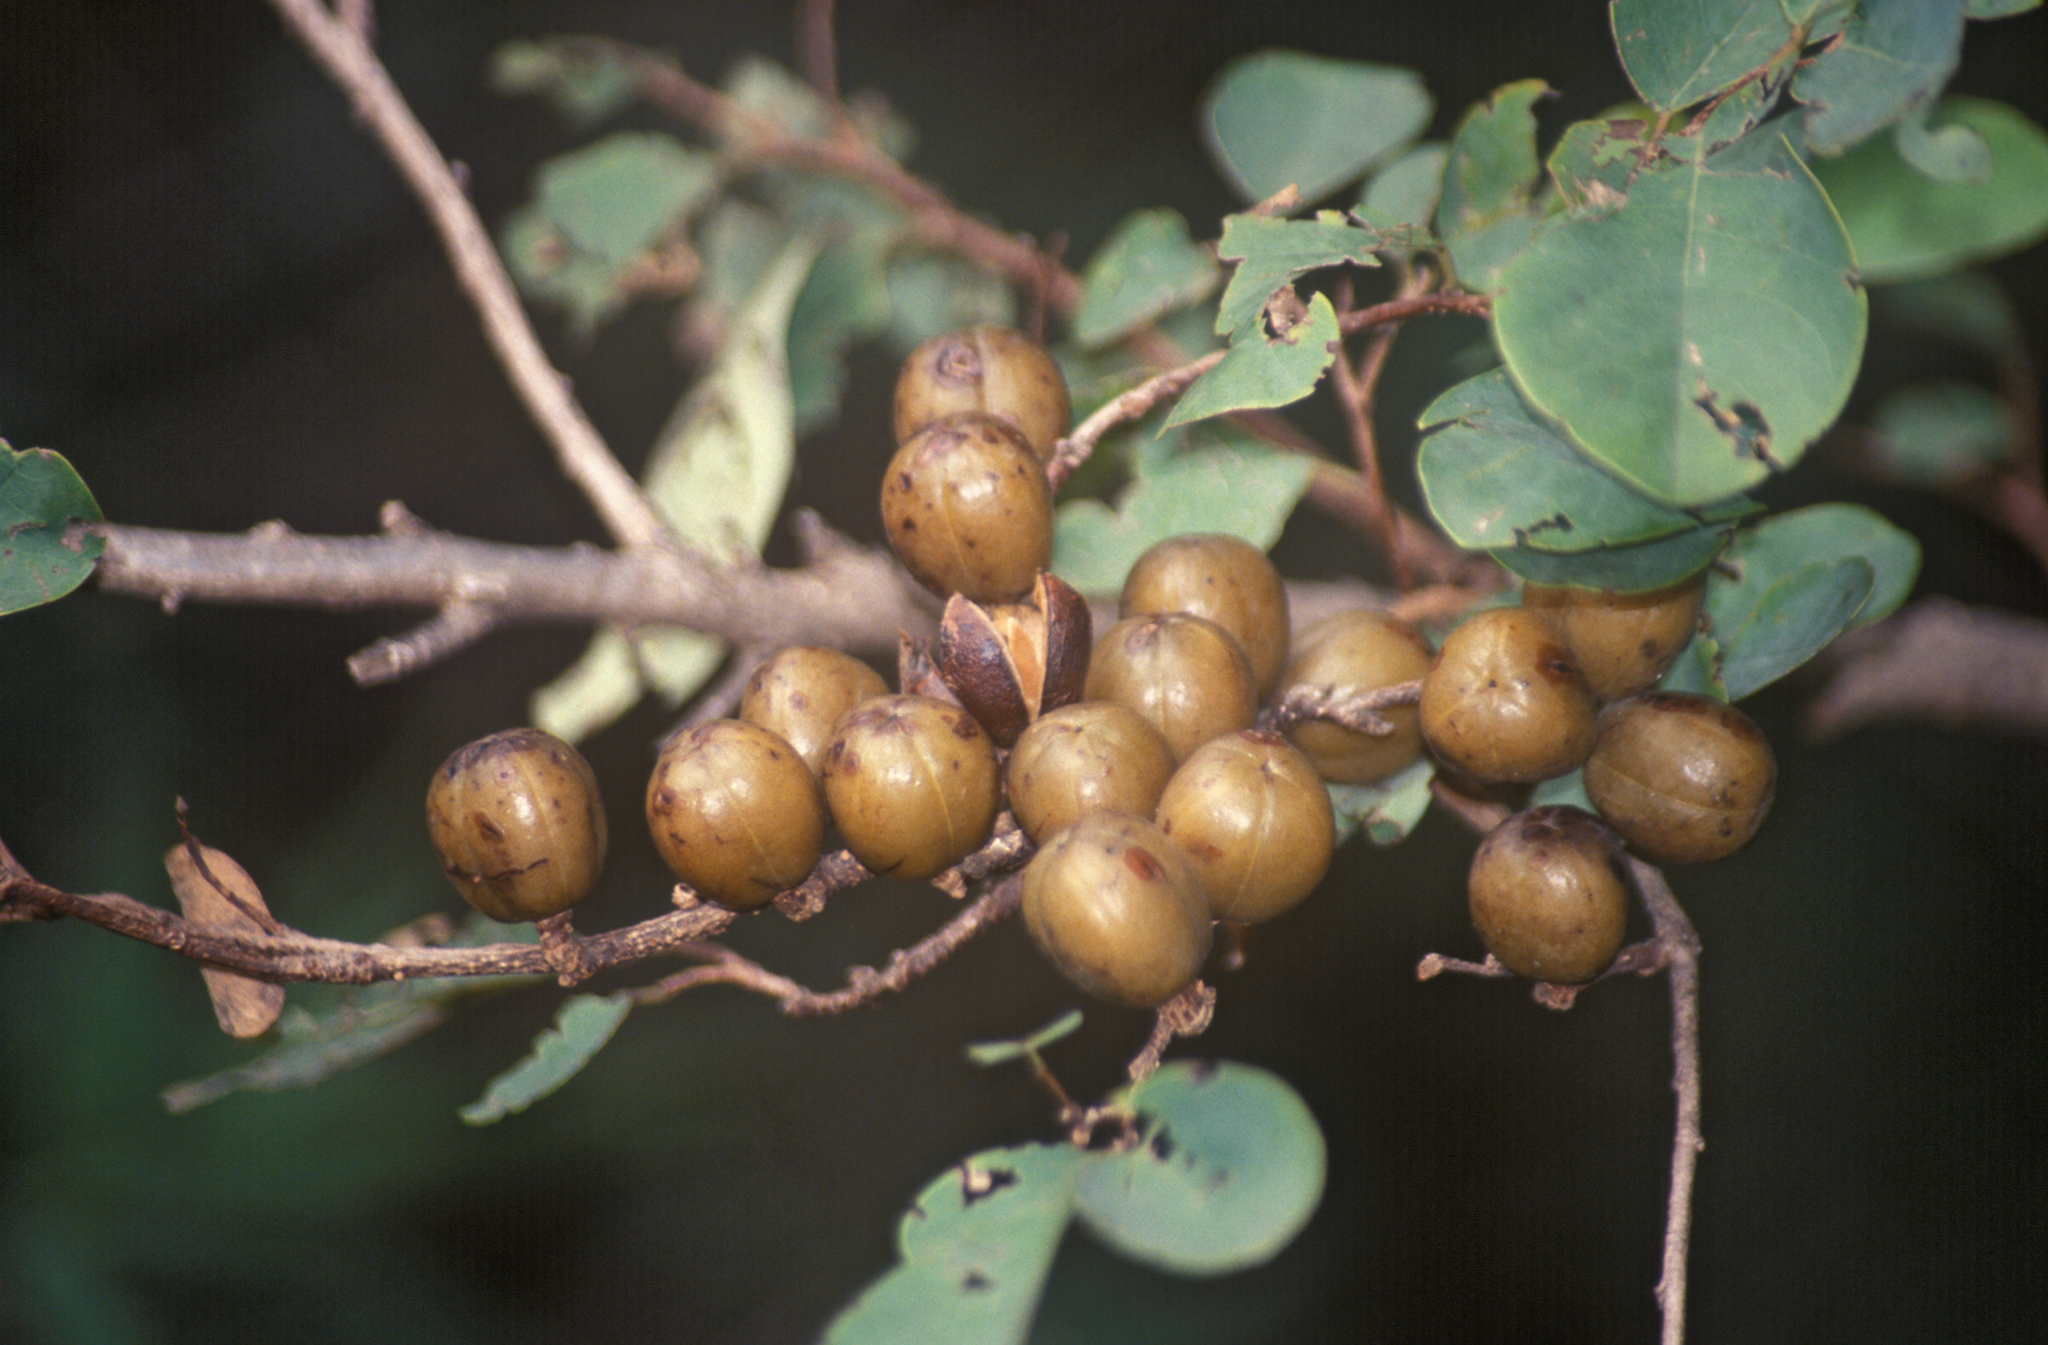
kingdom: Plantae
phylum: Tracheophyta
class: Magnoliopsida
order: Malpighiales
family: Phyllanthaceae
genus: Cleistanthus
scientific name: Cleistanthus collinus
